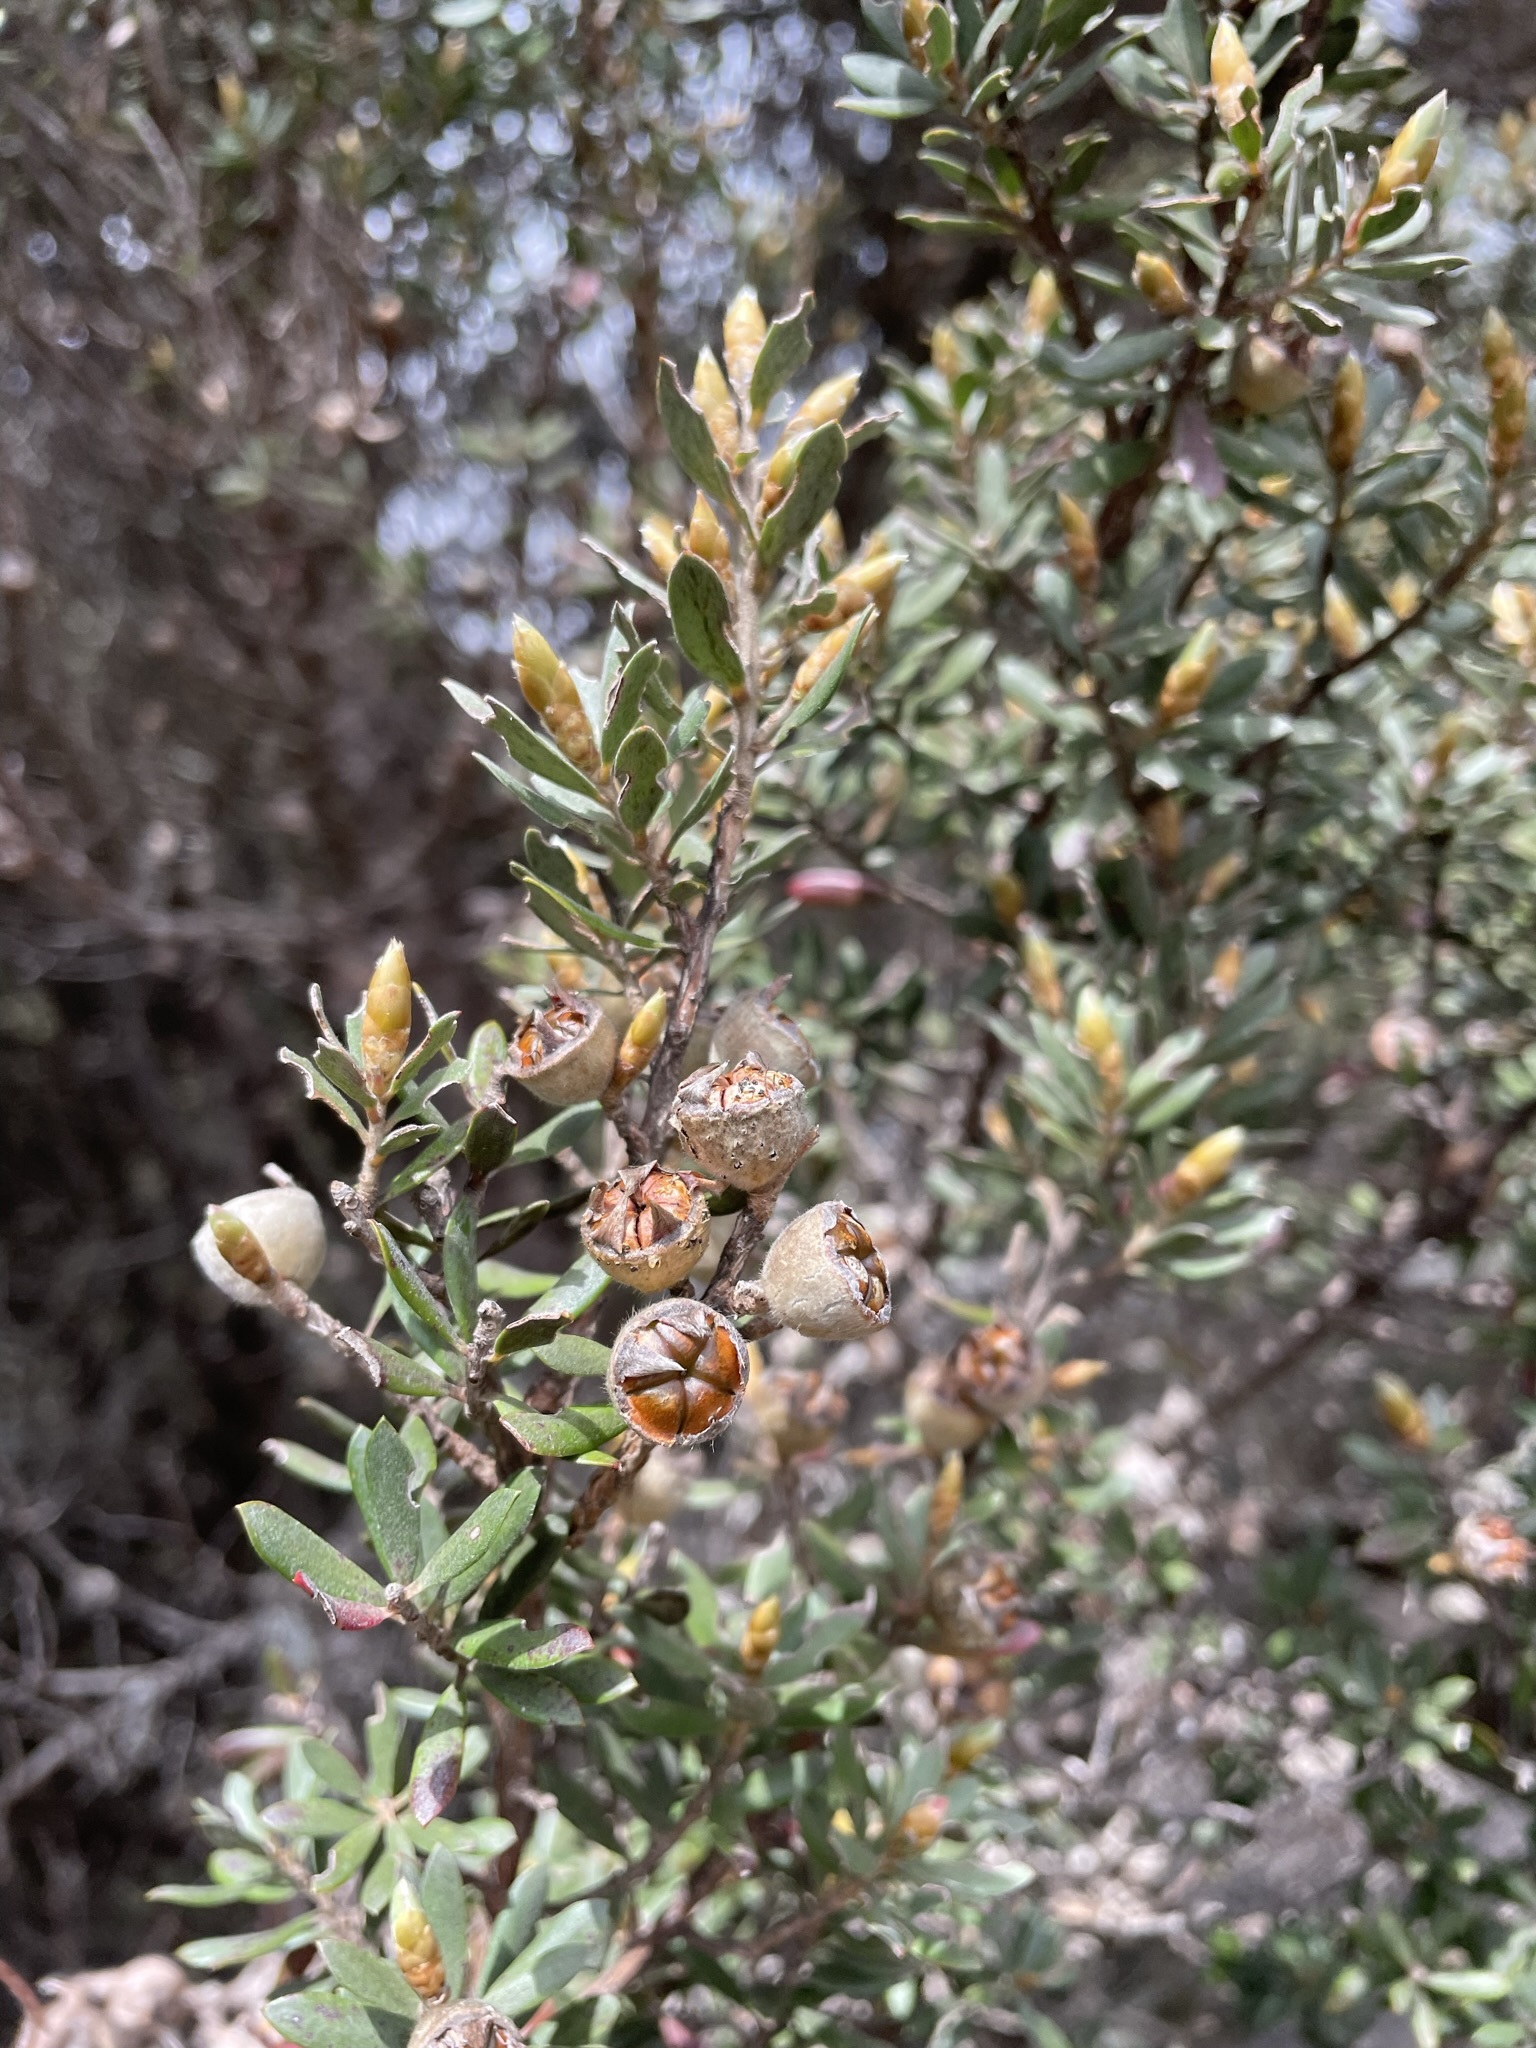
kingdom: Plantae
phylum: Tracheophyta
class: Magnoliopsida
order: Myrtales
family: Myrtaceae
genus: Leptospermum
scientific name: Leptospermum lanigerum
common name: Woolly tea-tree
